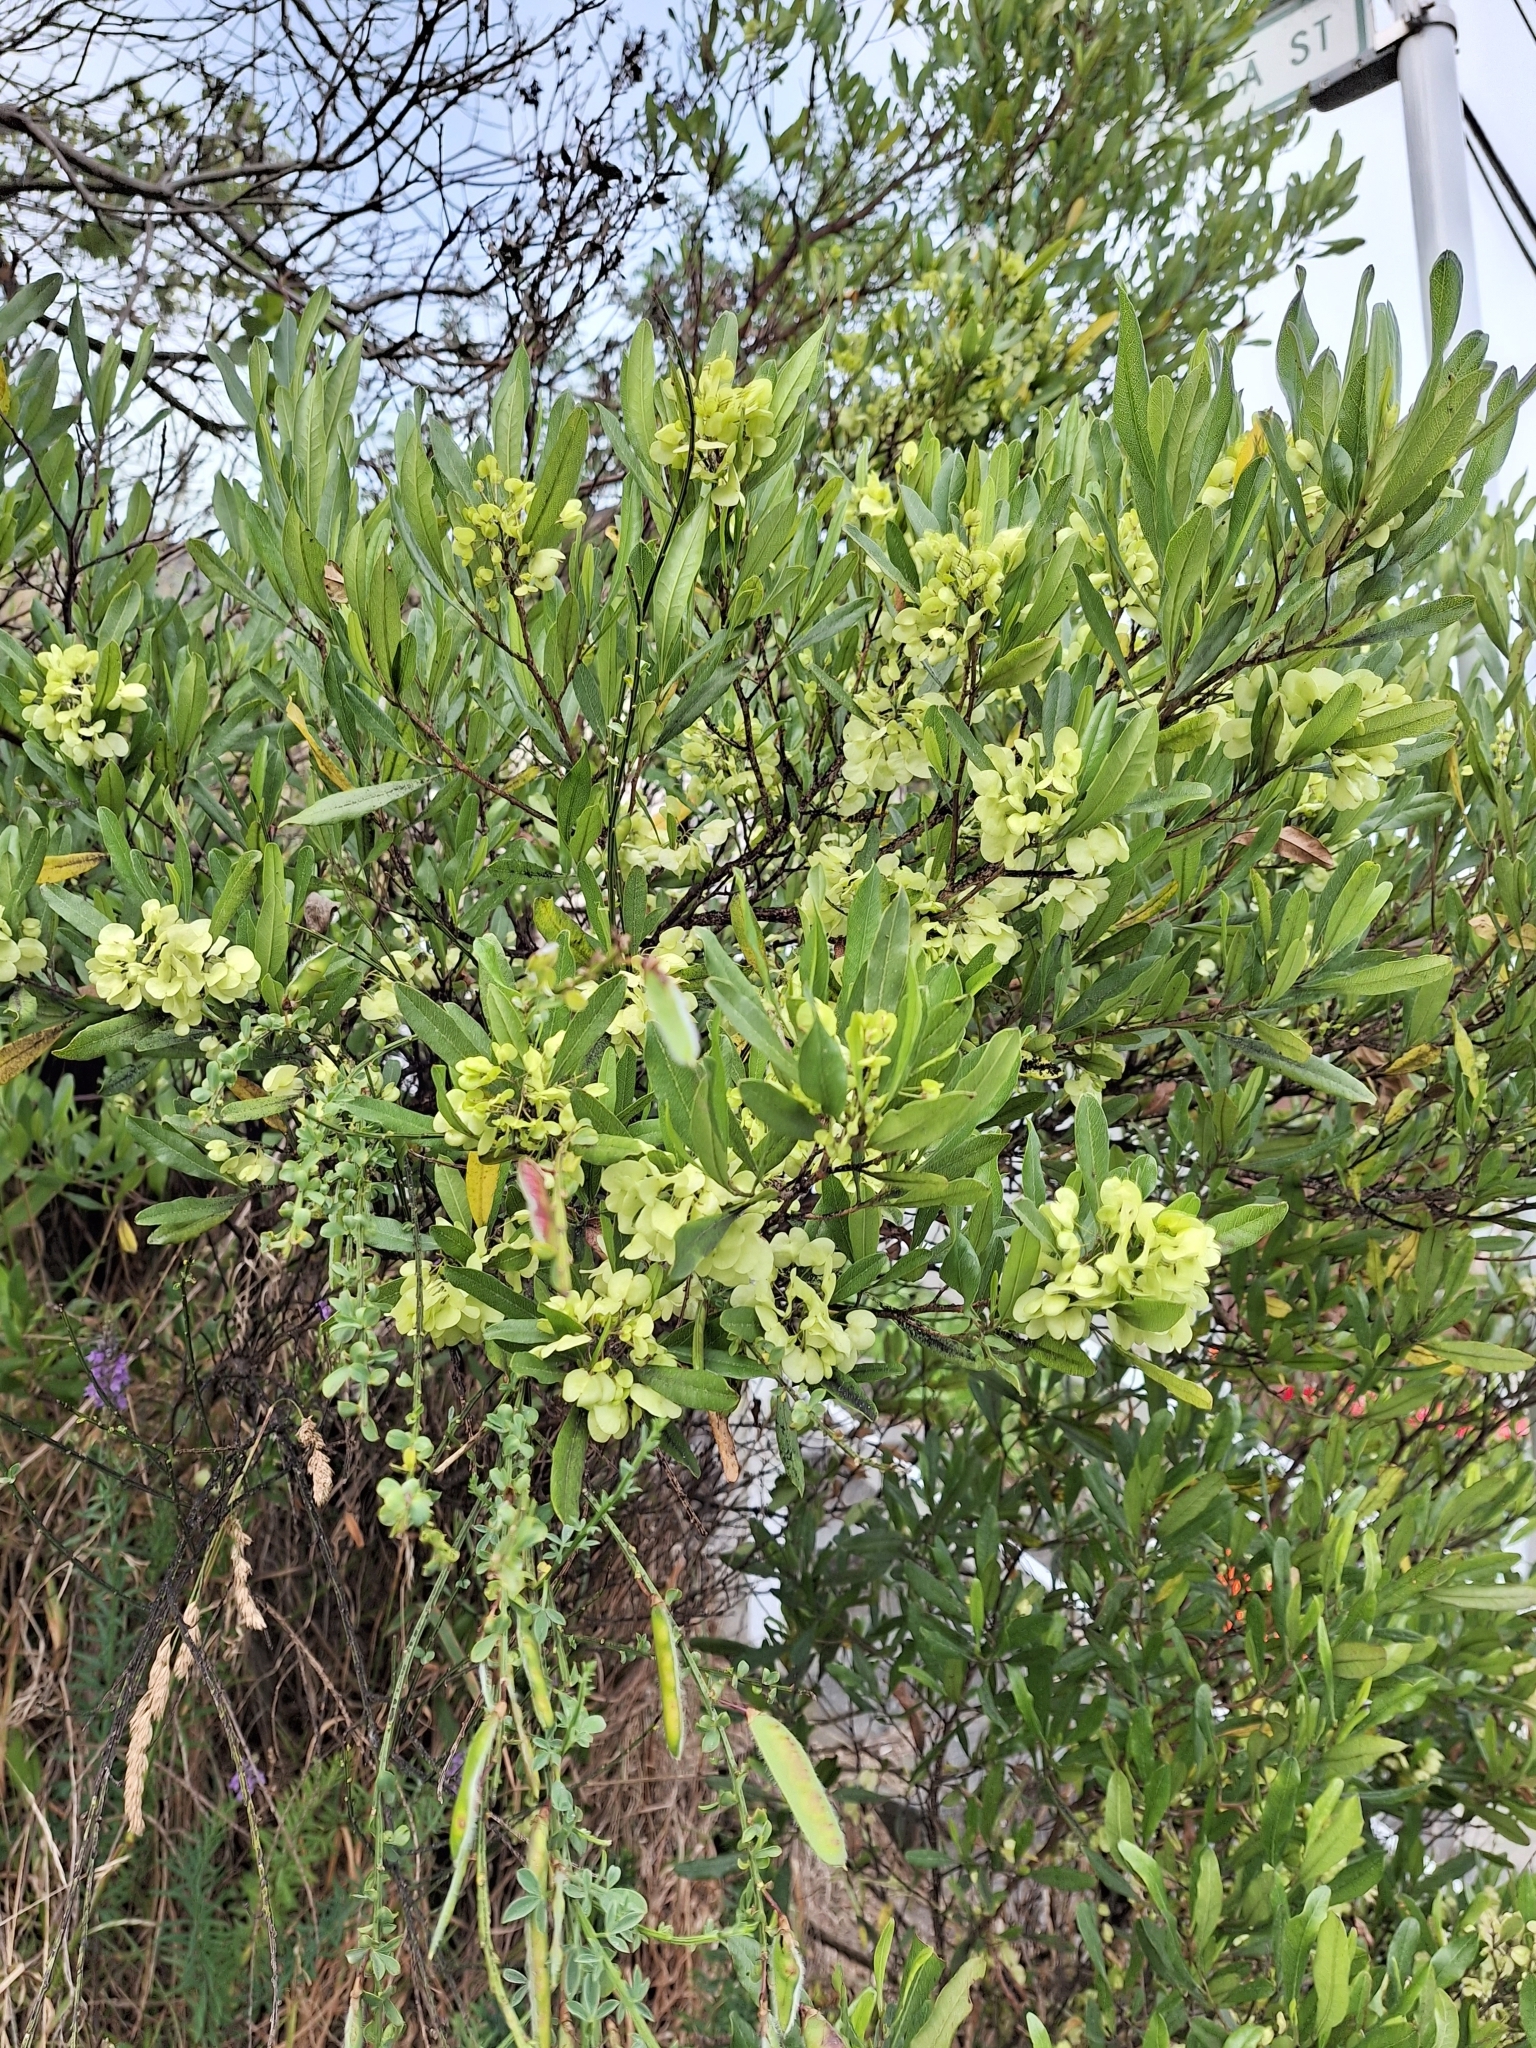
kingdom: Plantae
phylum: Tracheophyta
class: Magnoliopsida
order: Sapindales
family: Sapindaceae
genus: Dodonaea
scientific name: Dodonaea viscosa
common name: Hopbush
